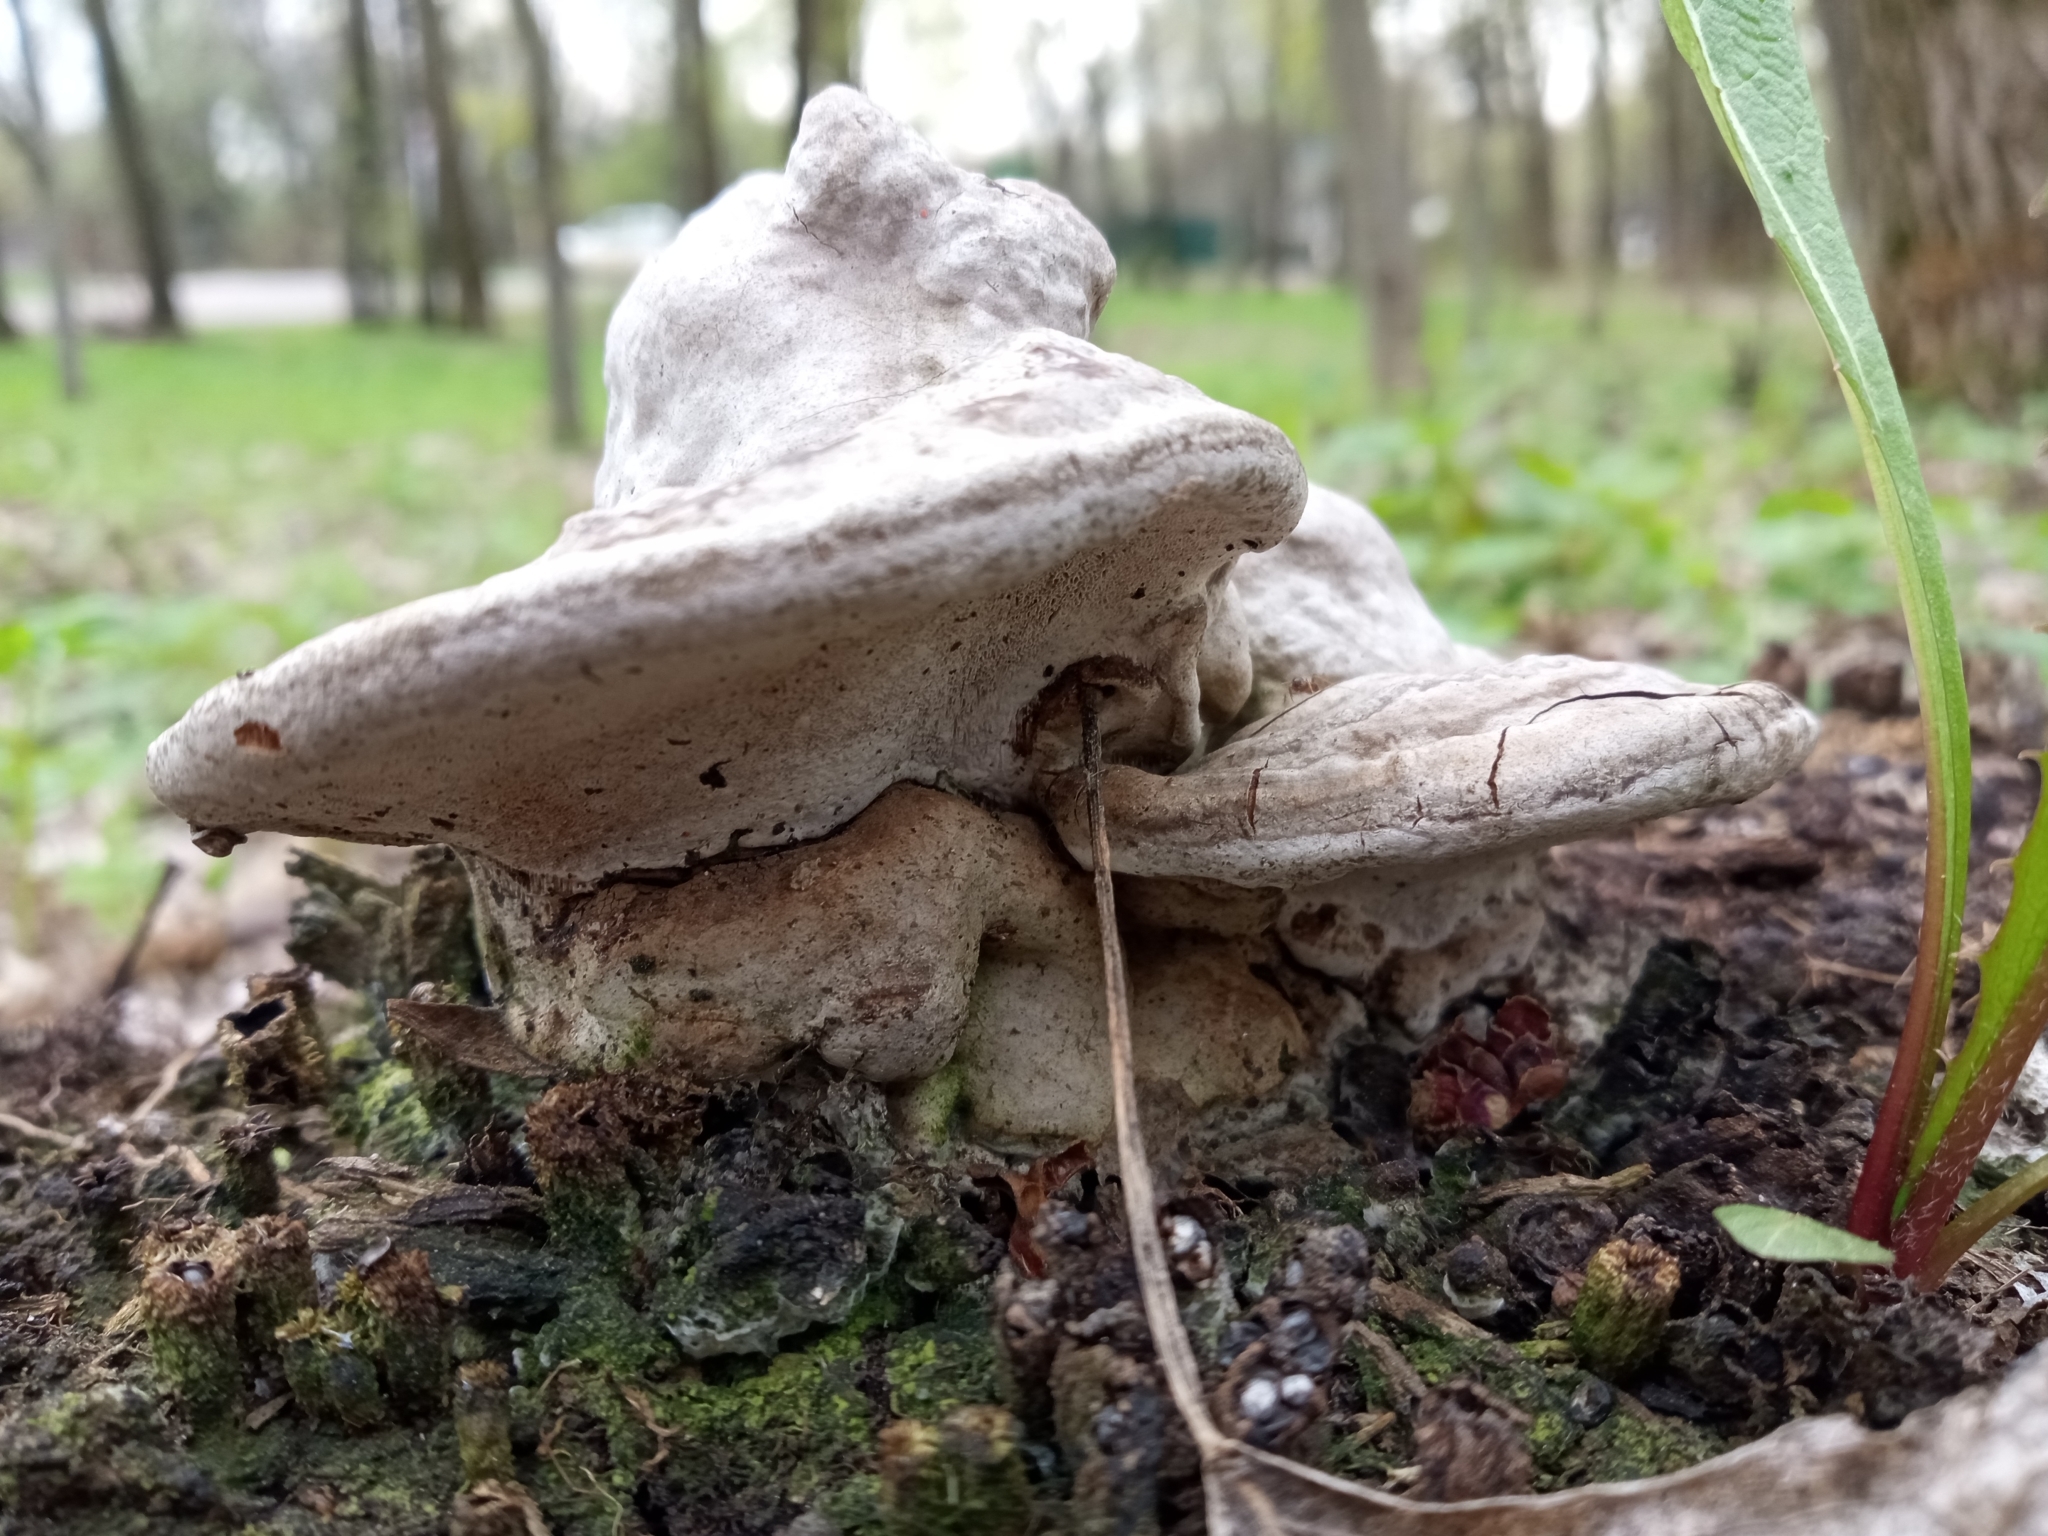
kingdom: Fungi
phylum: Basidiomycota
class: Agaricomycetes
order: Polyporales
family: Polyporaceae
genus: Fomes
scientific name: Fomes fomentarius
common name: Hoof fungus
